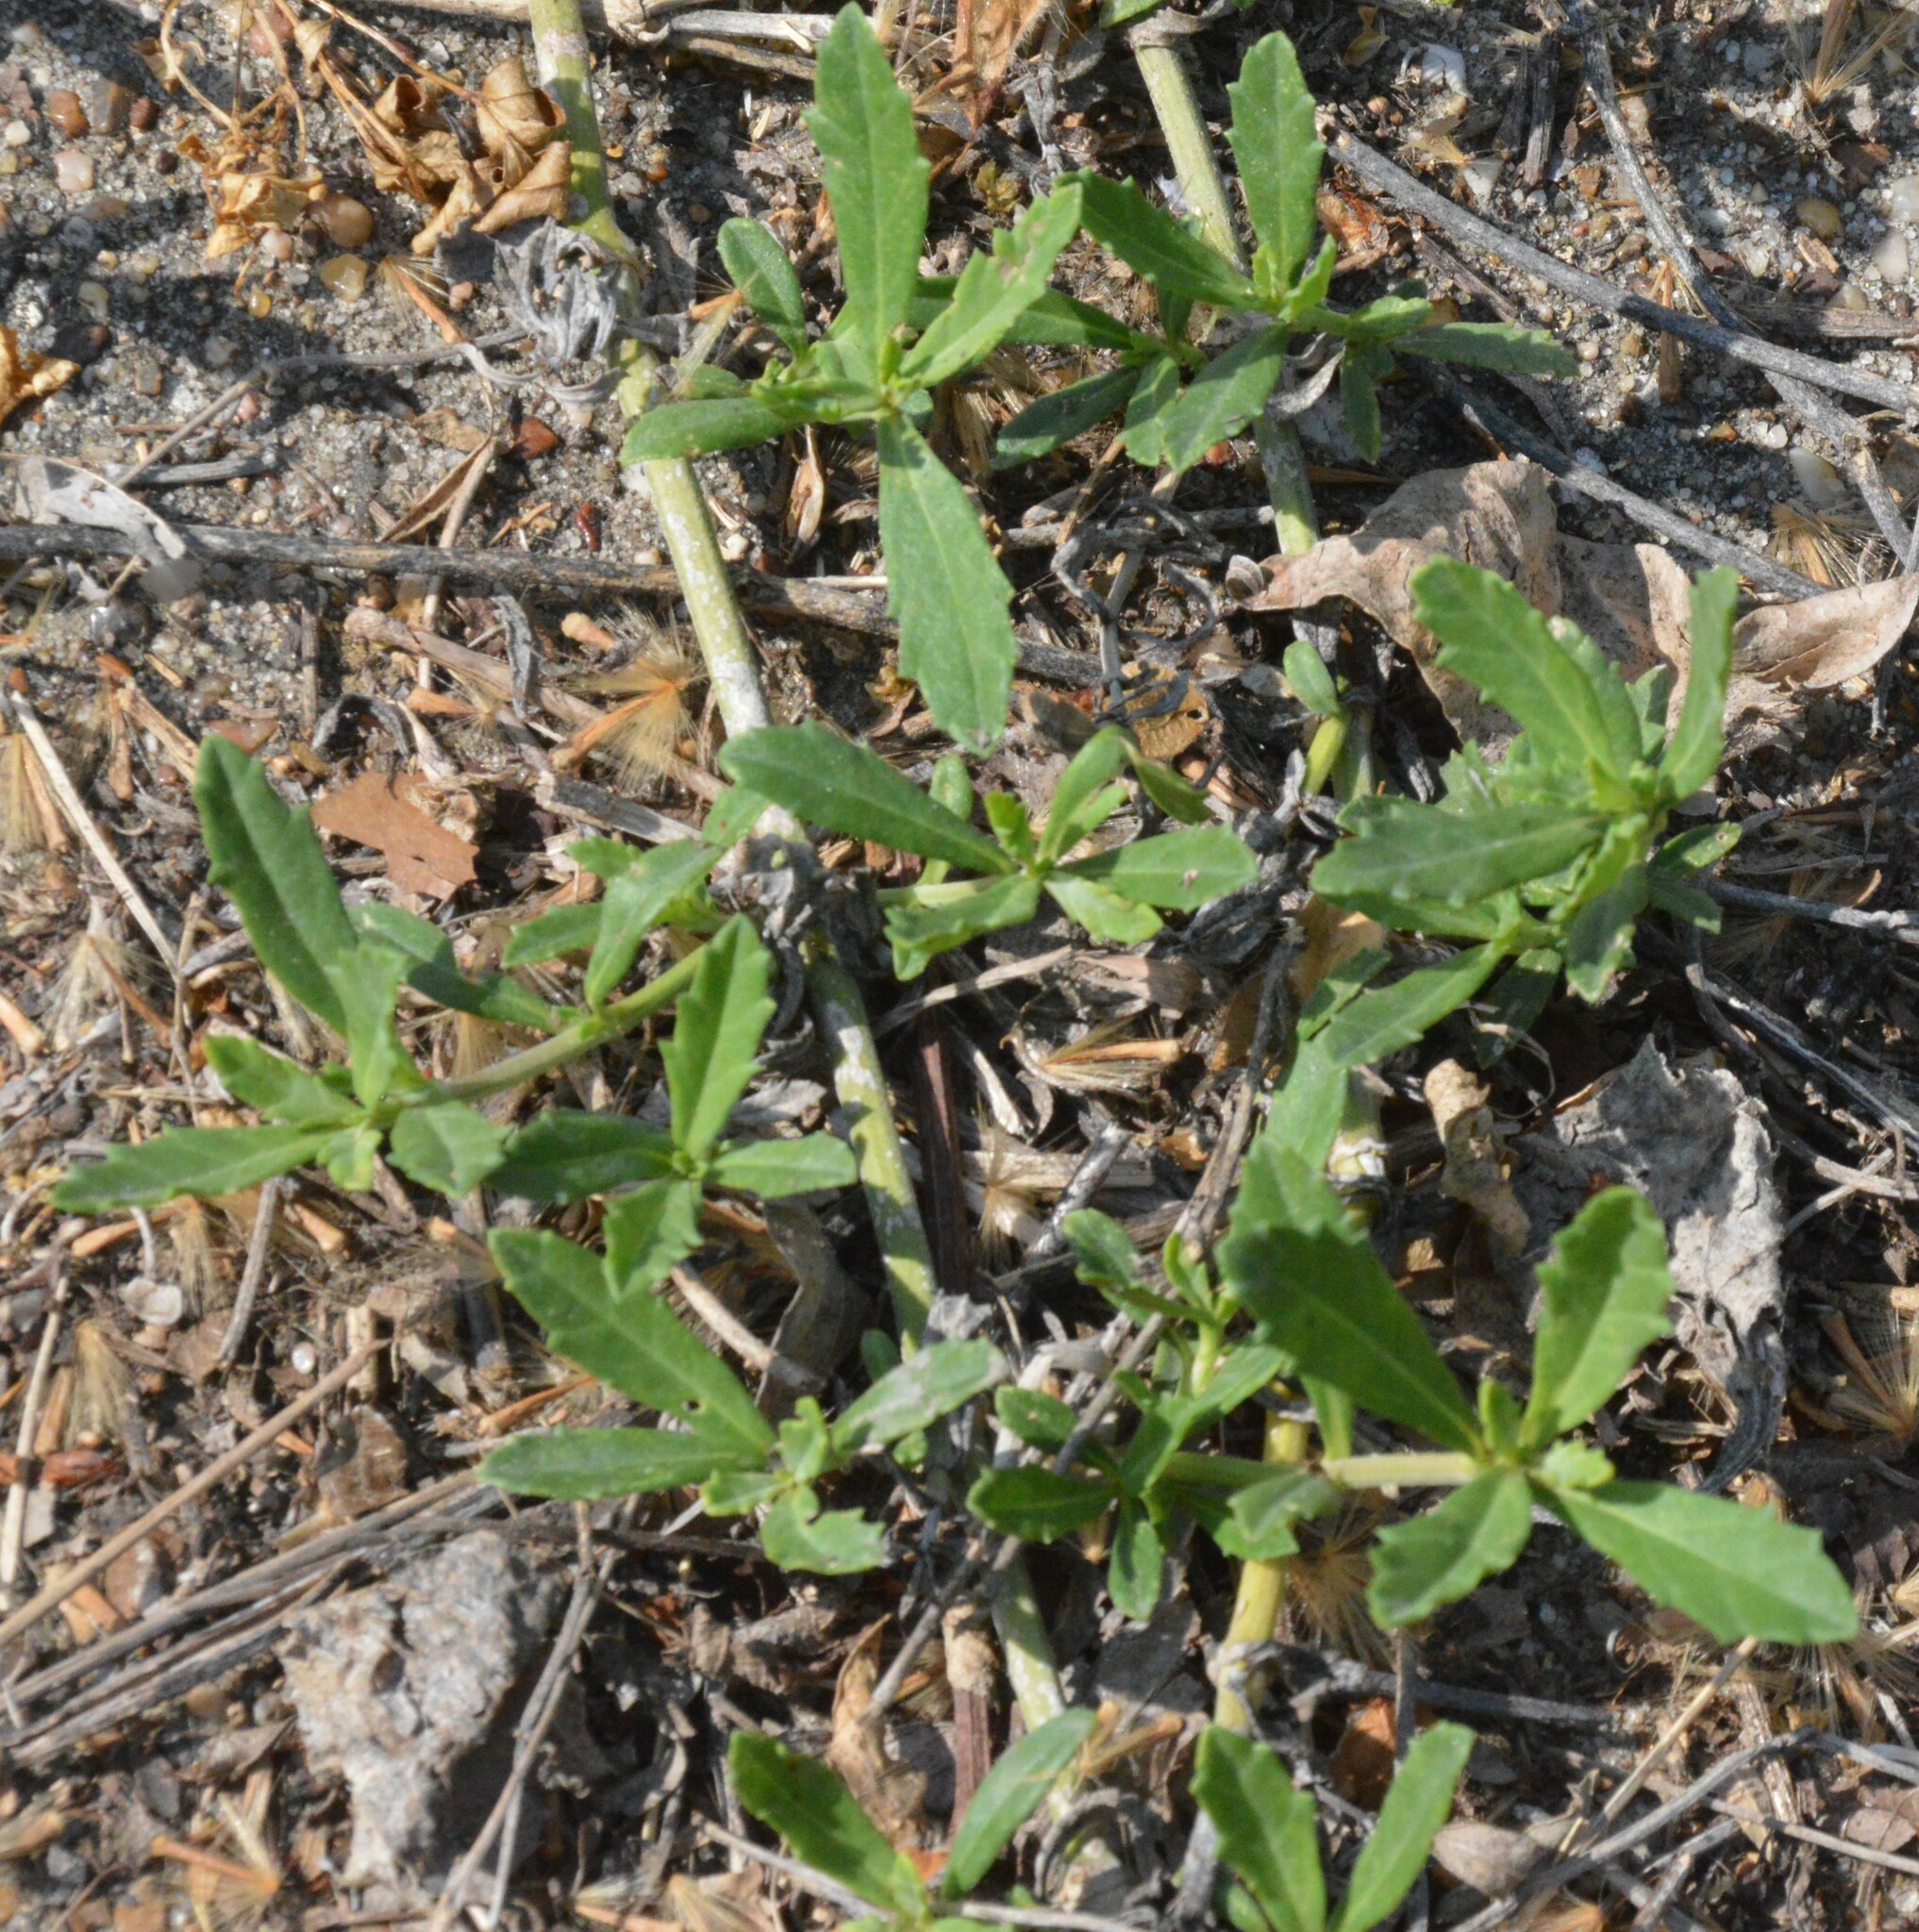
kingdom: Plantae
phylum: Tracheophyta
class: Magnoliopsida
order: Lamiales
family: Verbenaceae
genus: Phyla
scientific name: Phyla nodiflora
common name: Frogfruit
